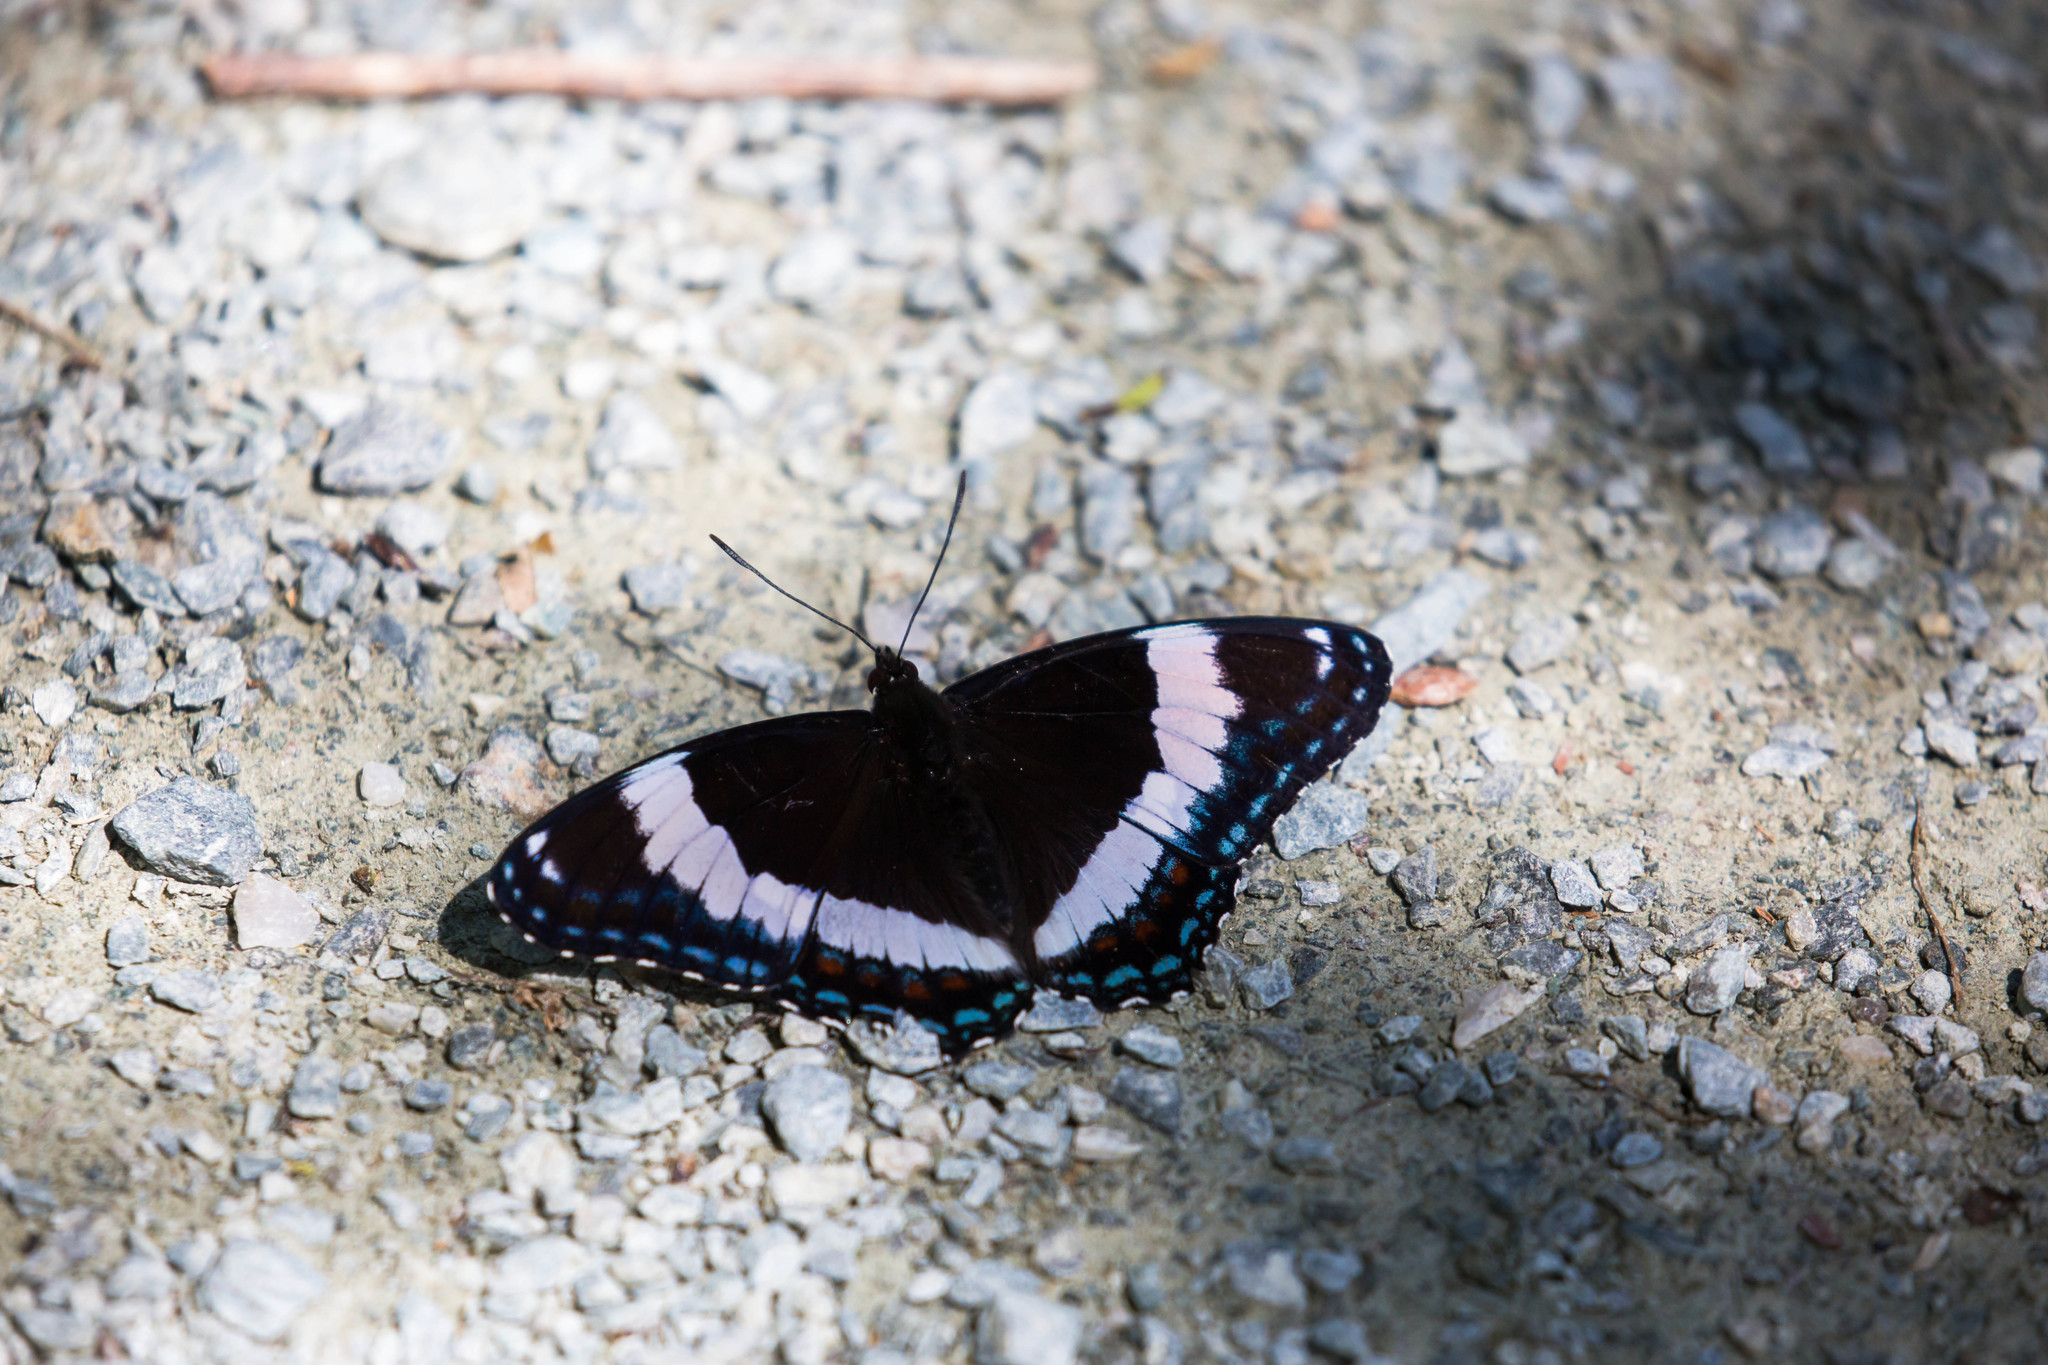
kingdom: Animalia
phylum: Arthropoda
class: Insecta
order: Lepidoptera
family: Nymphalidae
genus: Limenitis
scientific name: Limenitis arthemis
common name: Red-spotted admiral
